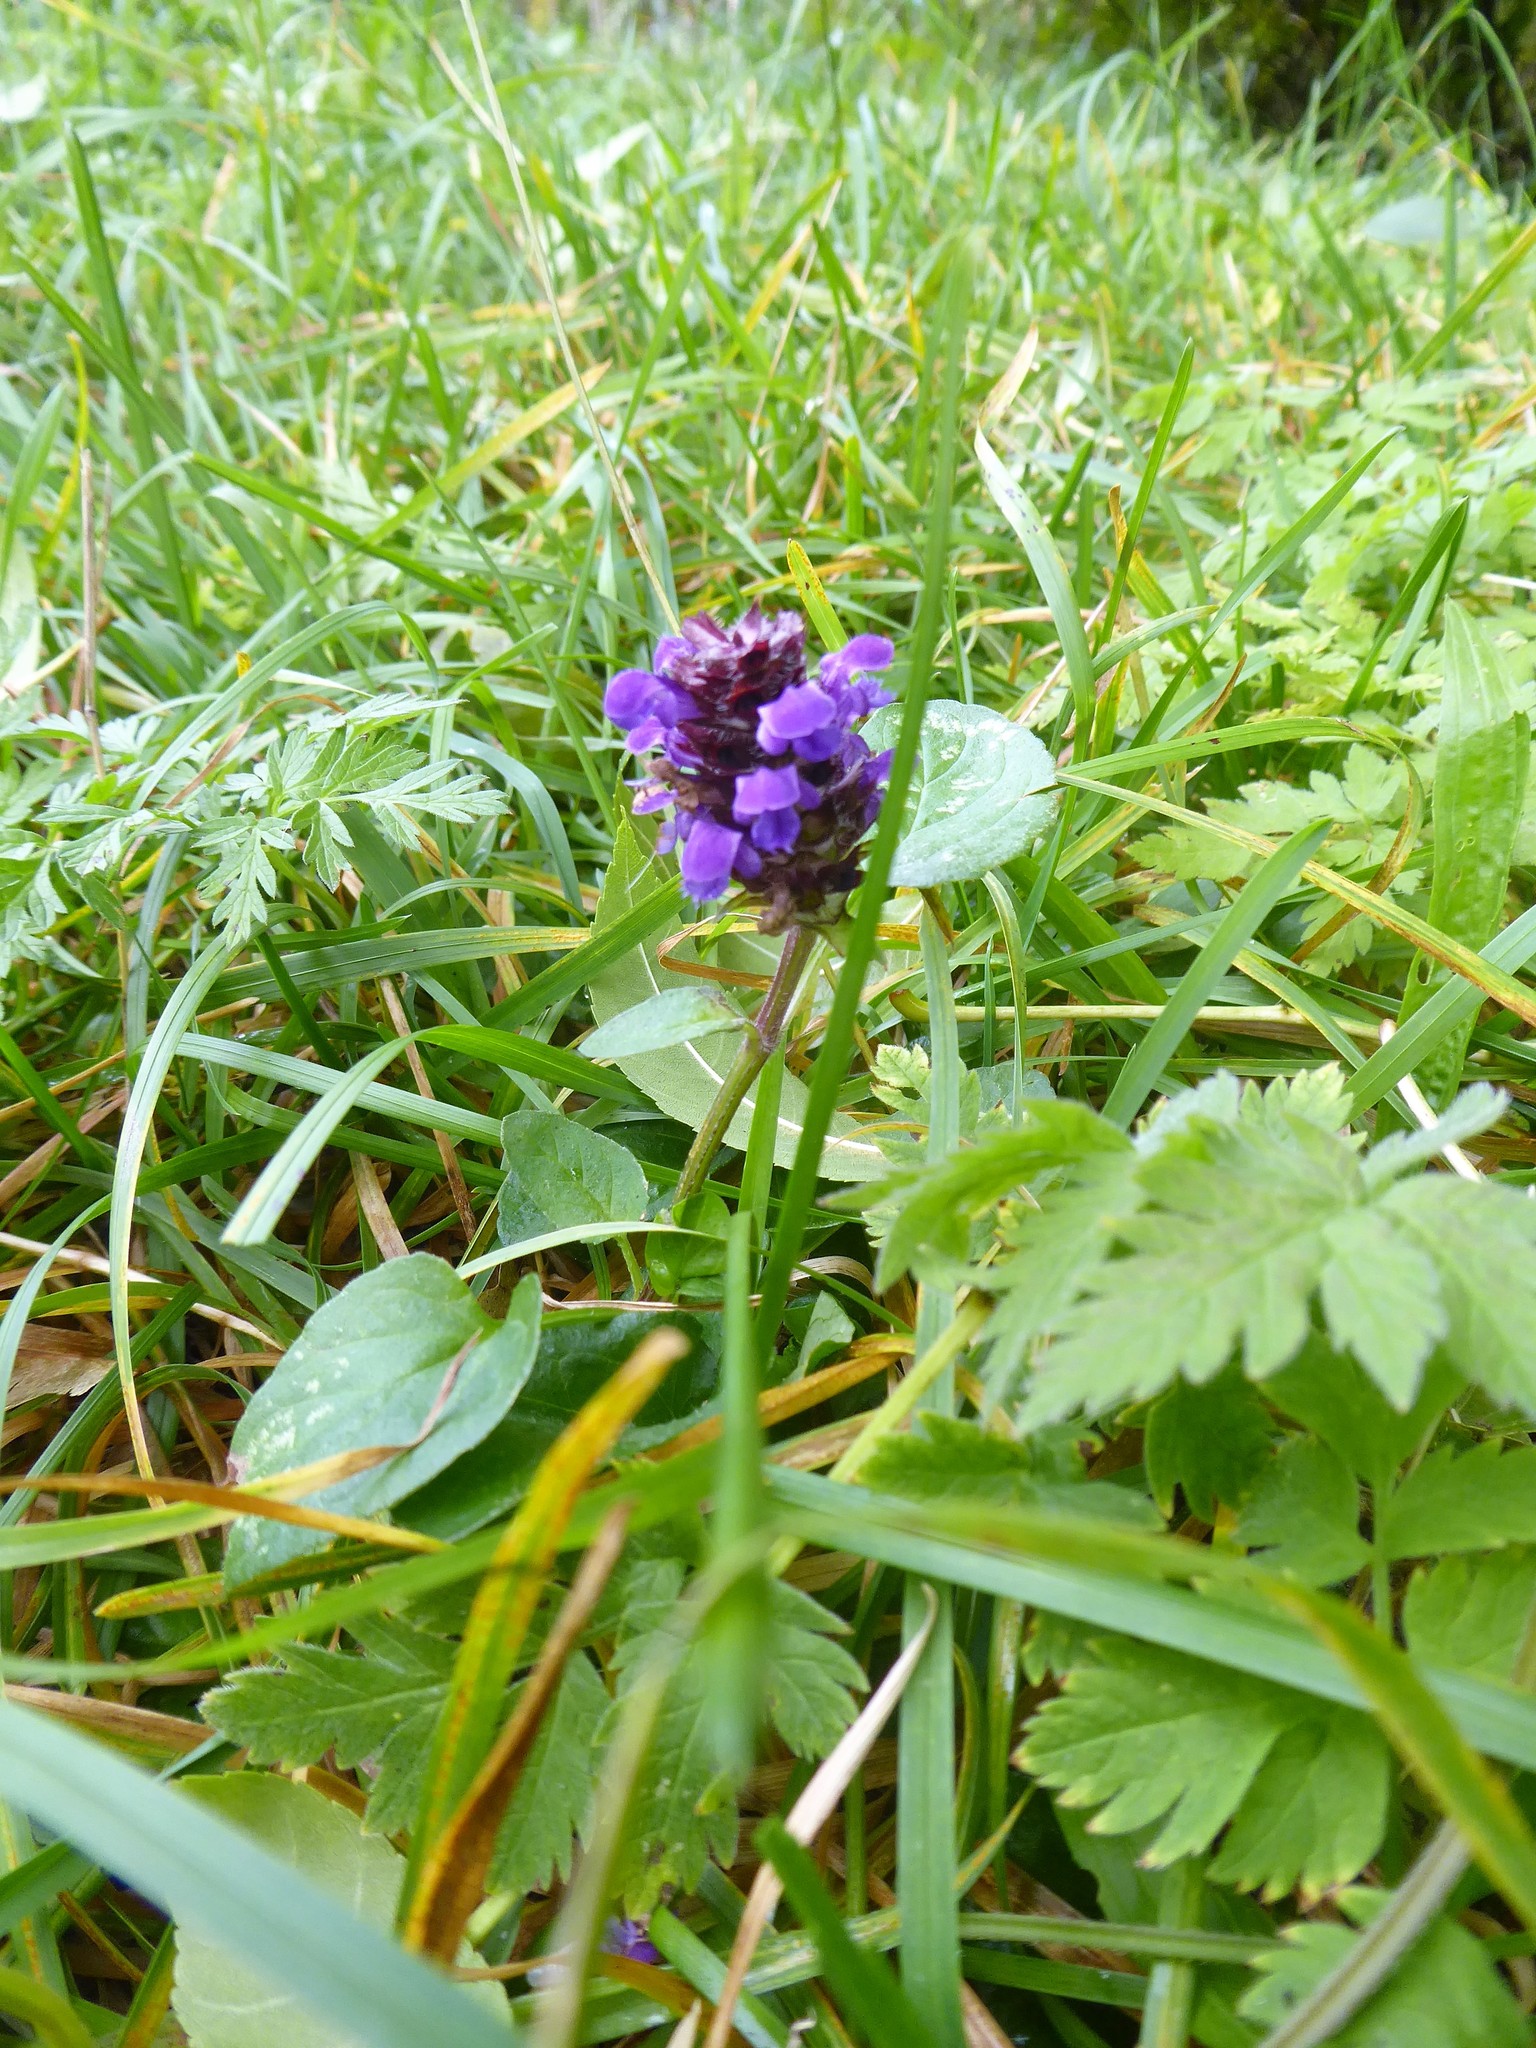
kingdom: Plantae
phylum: Tracheophyta
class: Magnoliopsida
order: Lamiales
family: Lamiaceae
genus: Prunella
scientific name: Prunella vulgaris
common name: Heal-all
